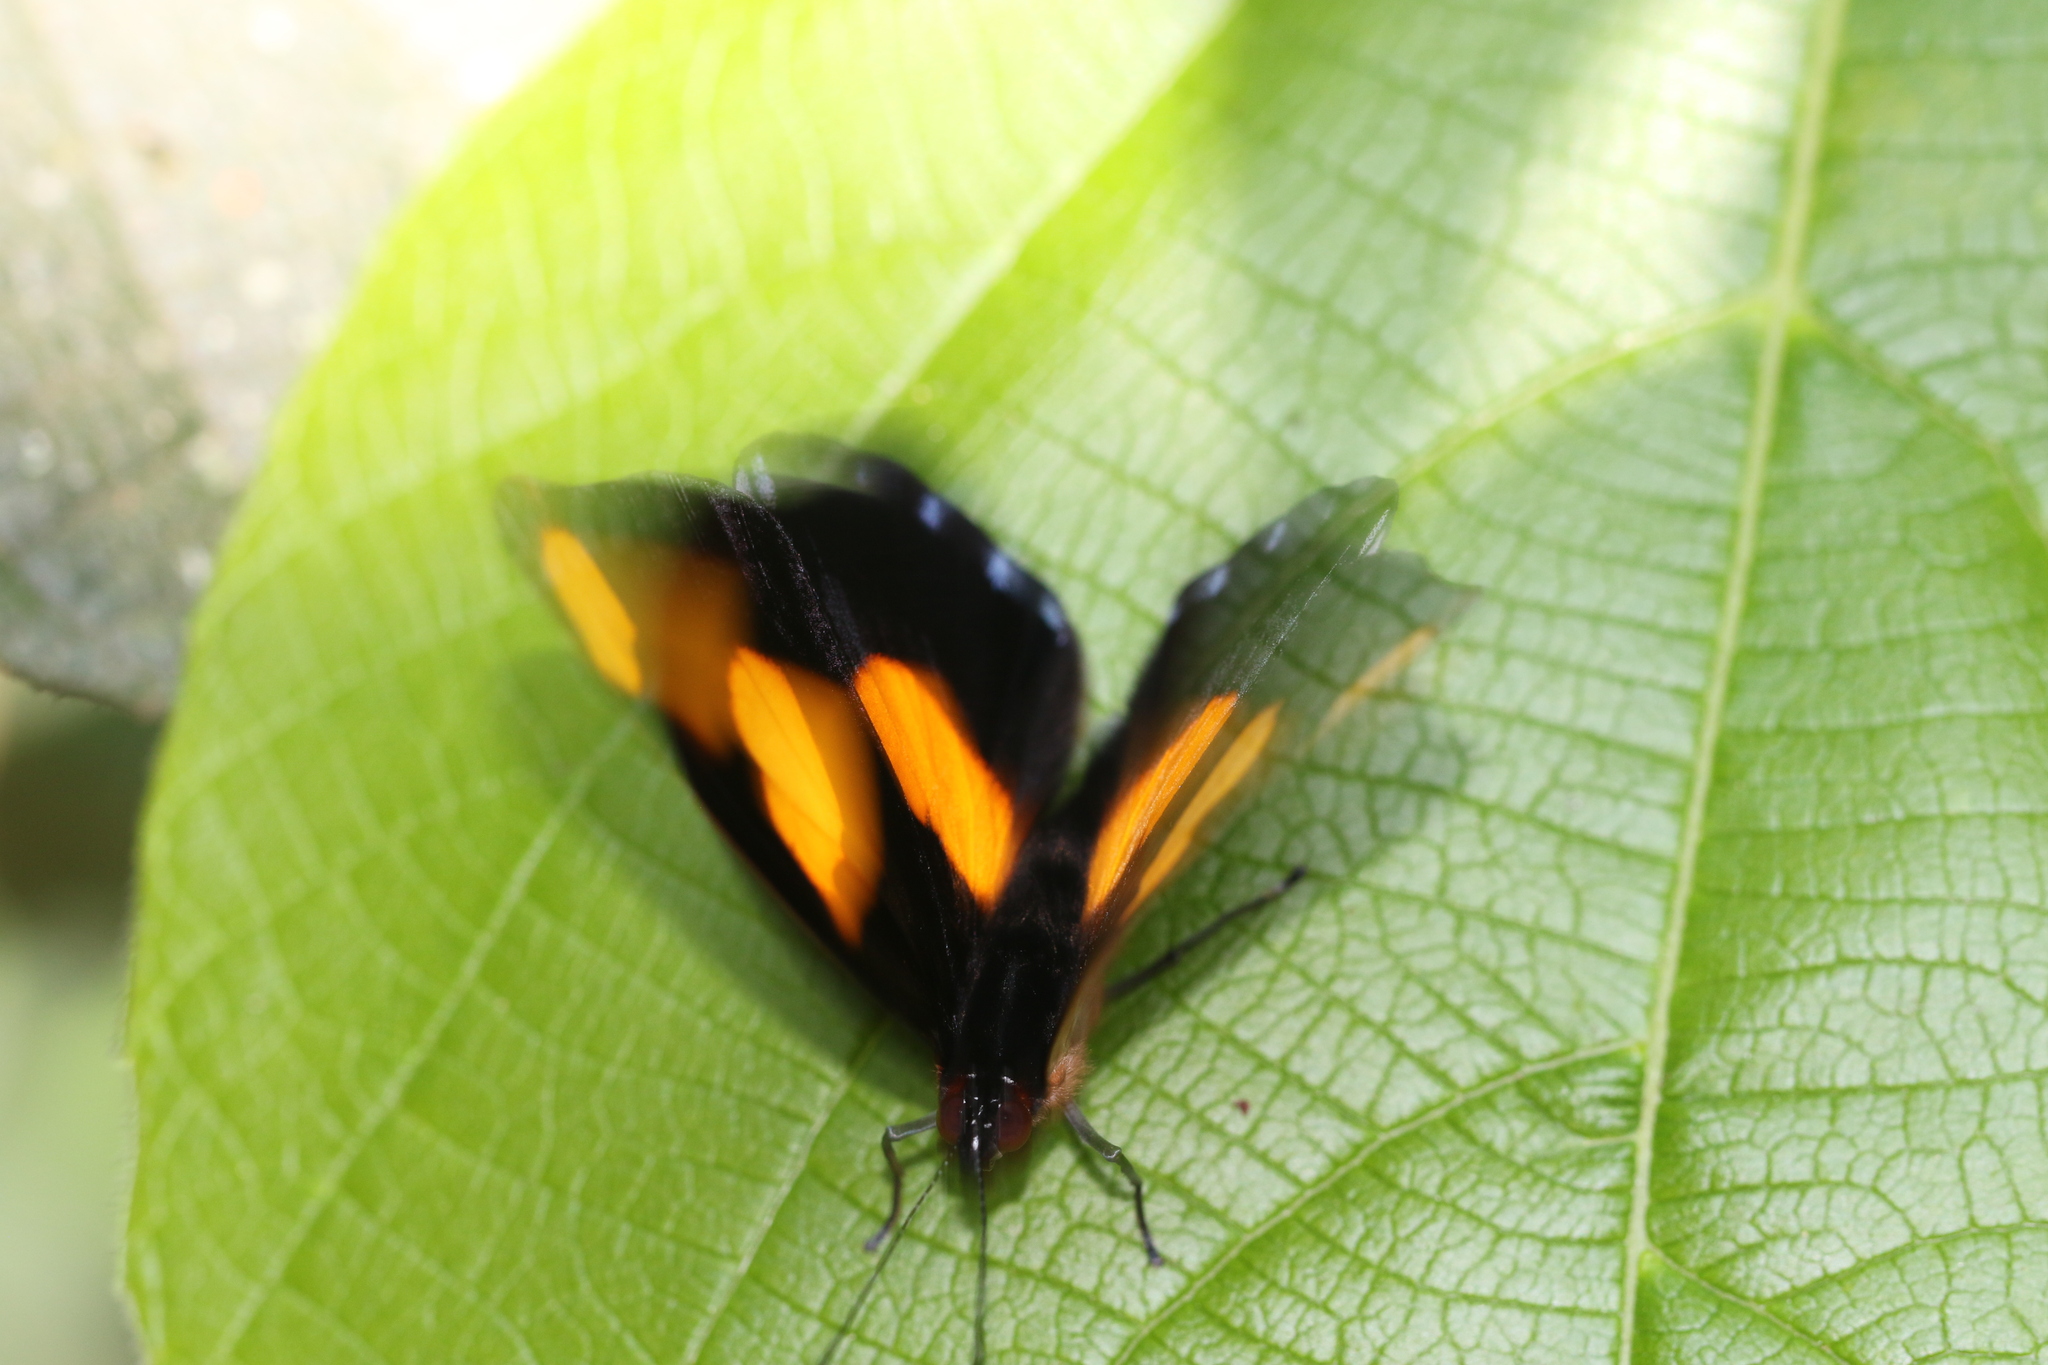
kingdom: Animalia
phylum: Arthropoda
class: Insecta
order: Lepidoptera
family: Nymphalidae
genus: Catonephele
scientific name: Catonephele numilia
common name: Blue-frosted banner
